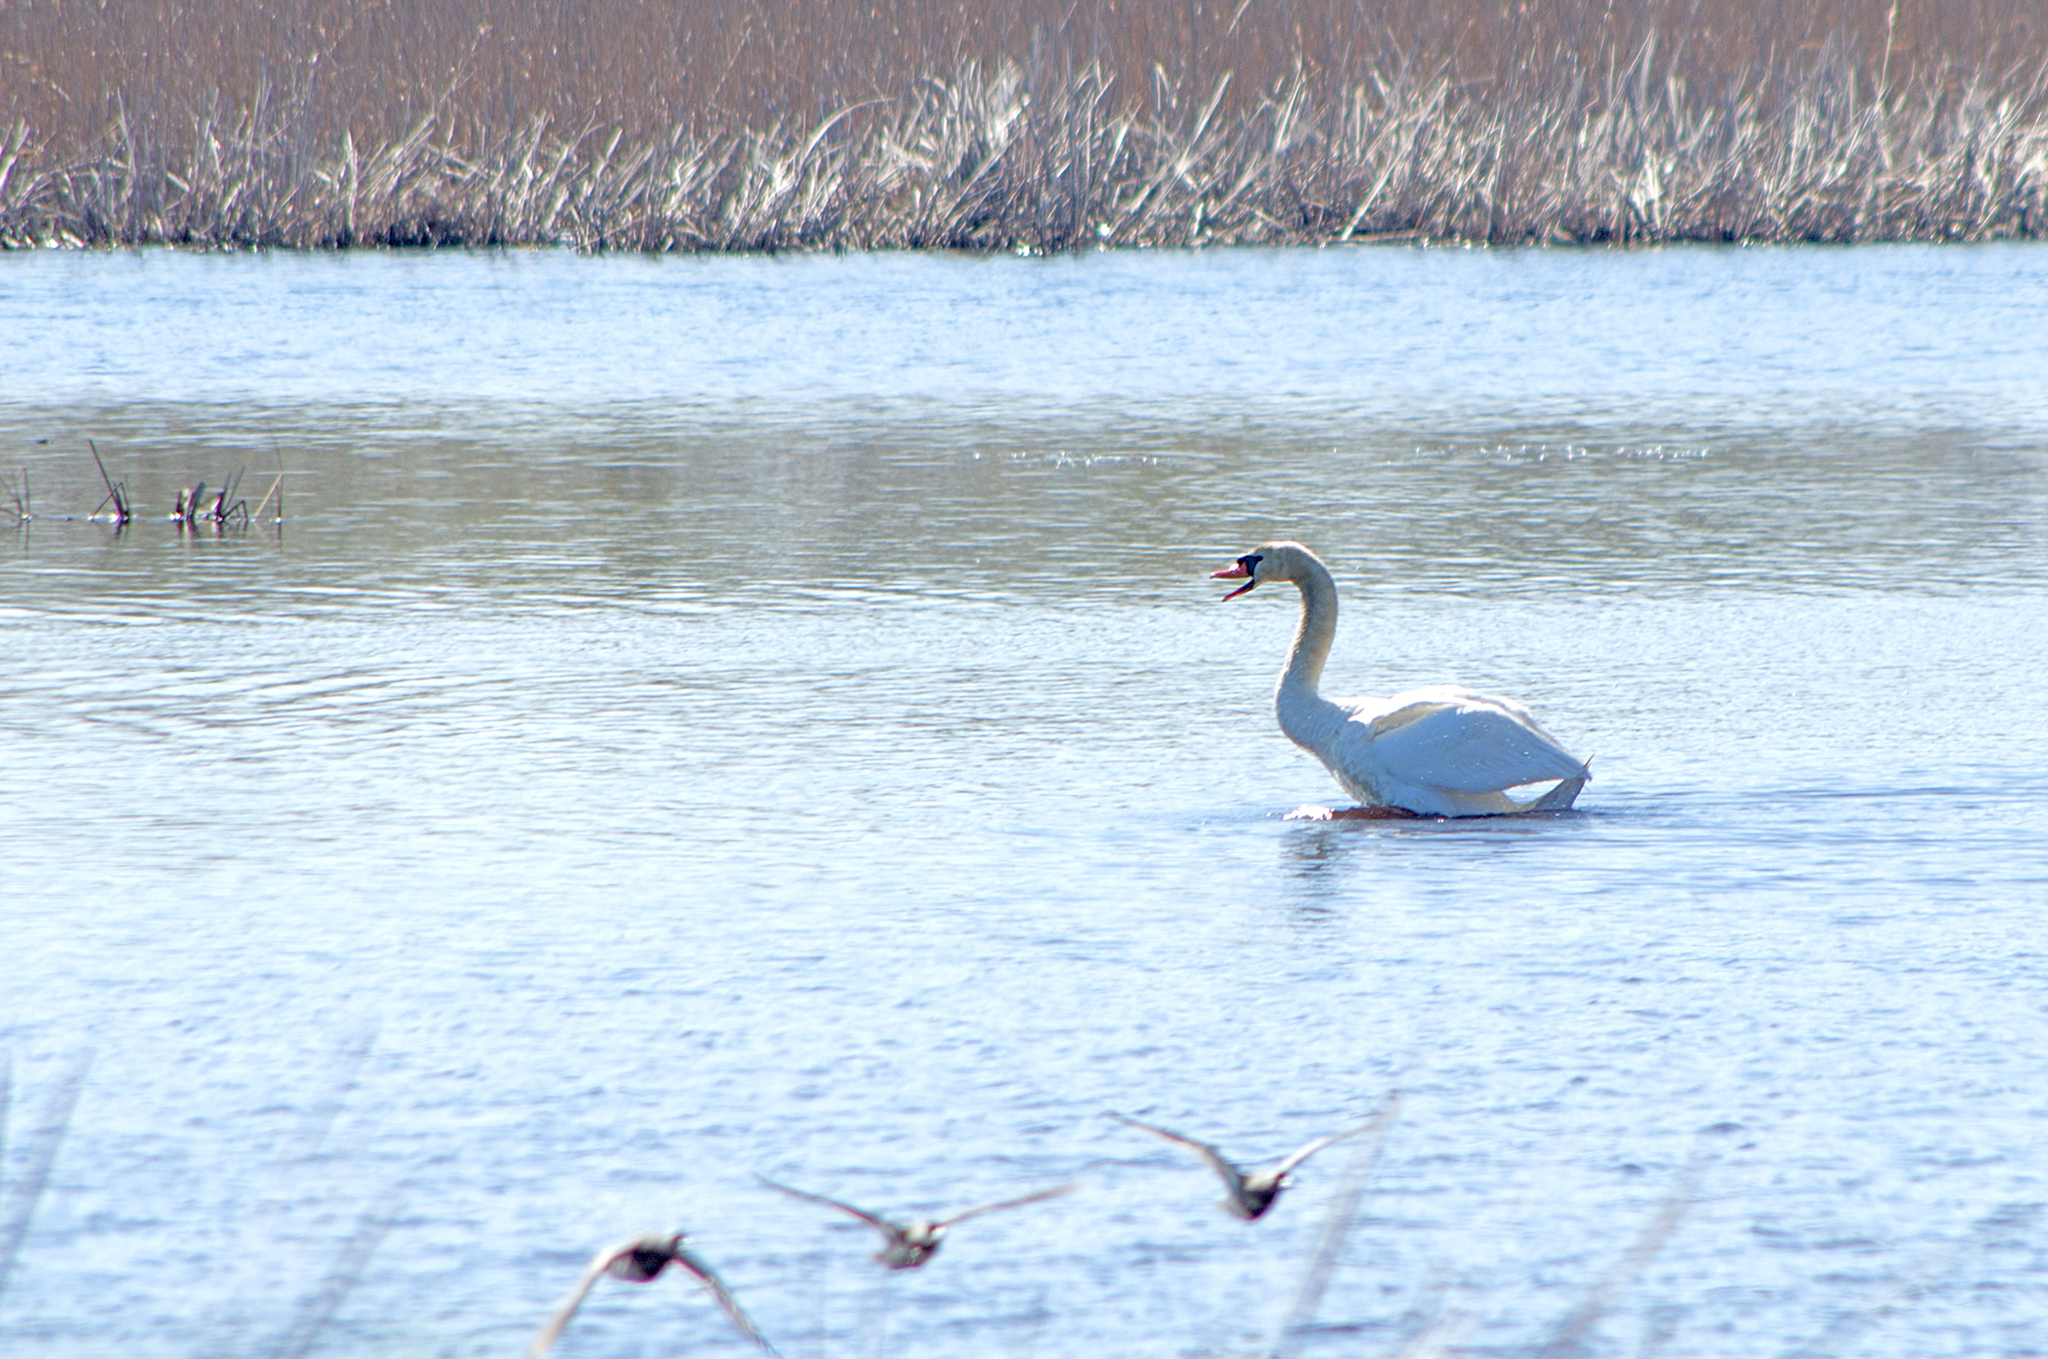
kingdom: Animalia
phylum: Chordata
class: Aves
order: Anseriformes
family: Anatidae
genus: Cygnus
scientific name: Cygnus olor
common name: Mute swan
